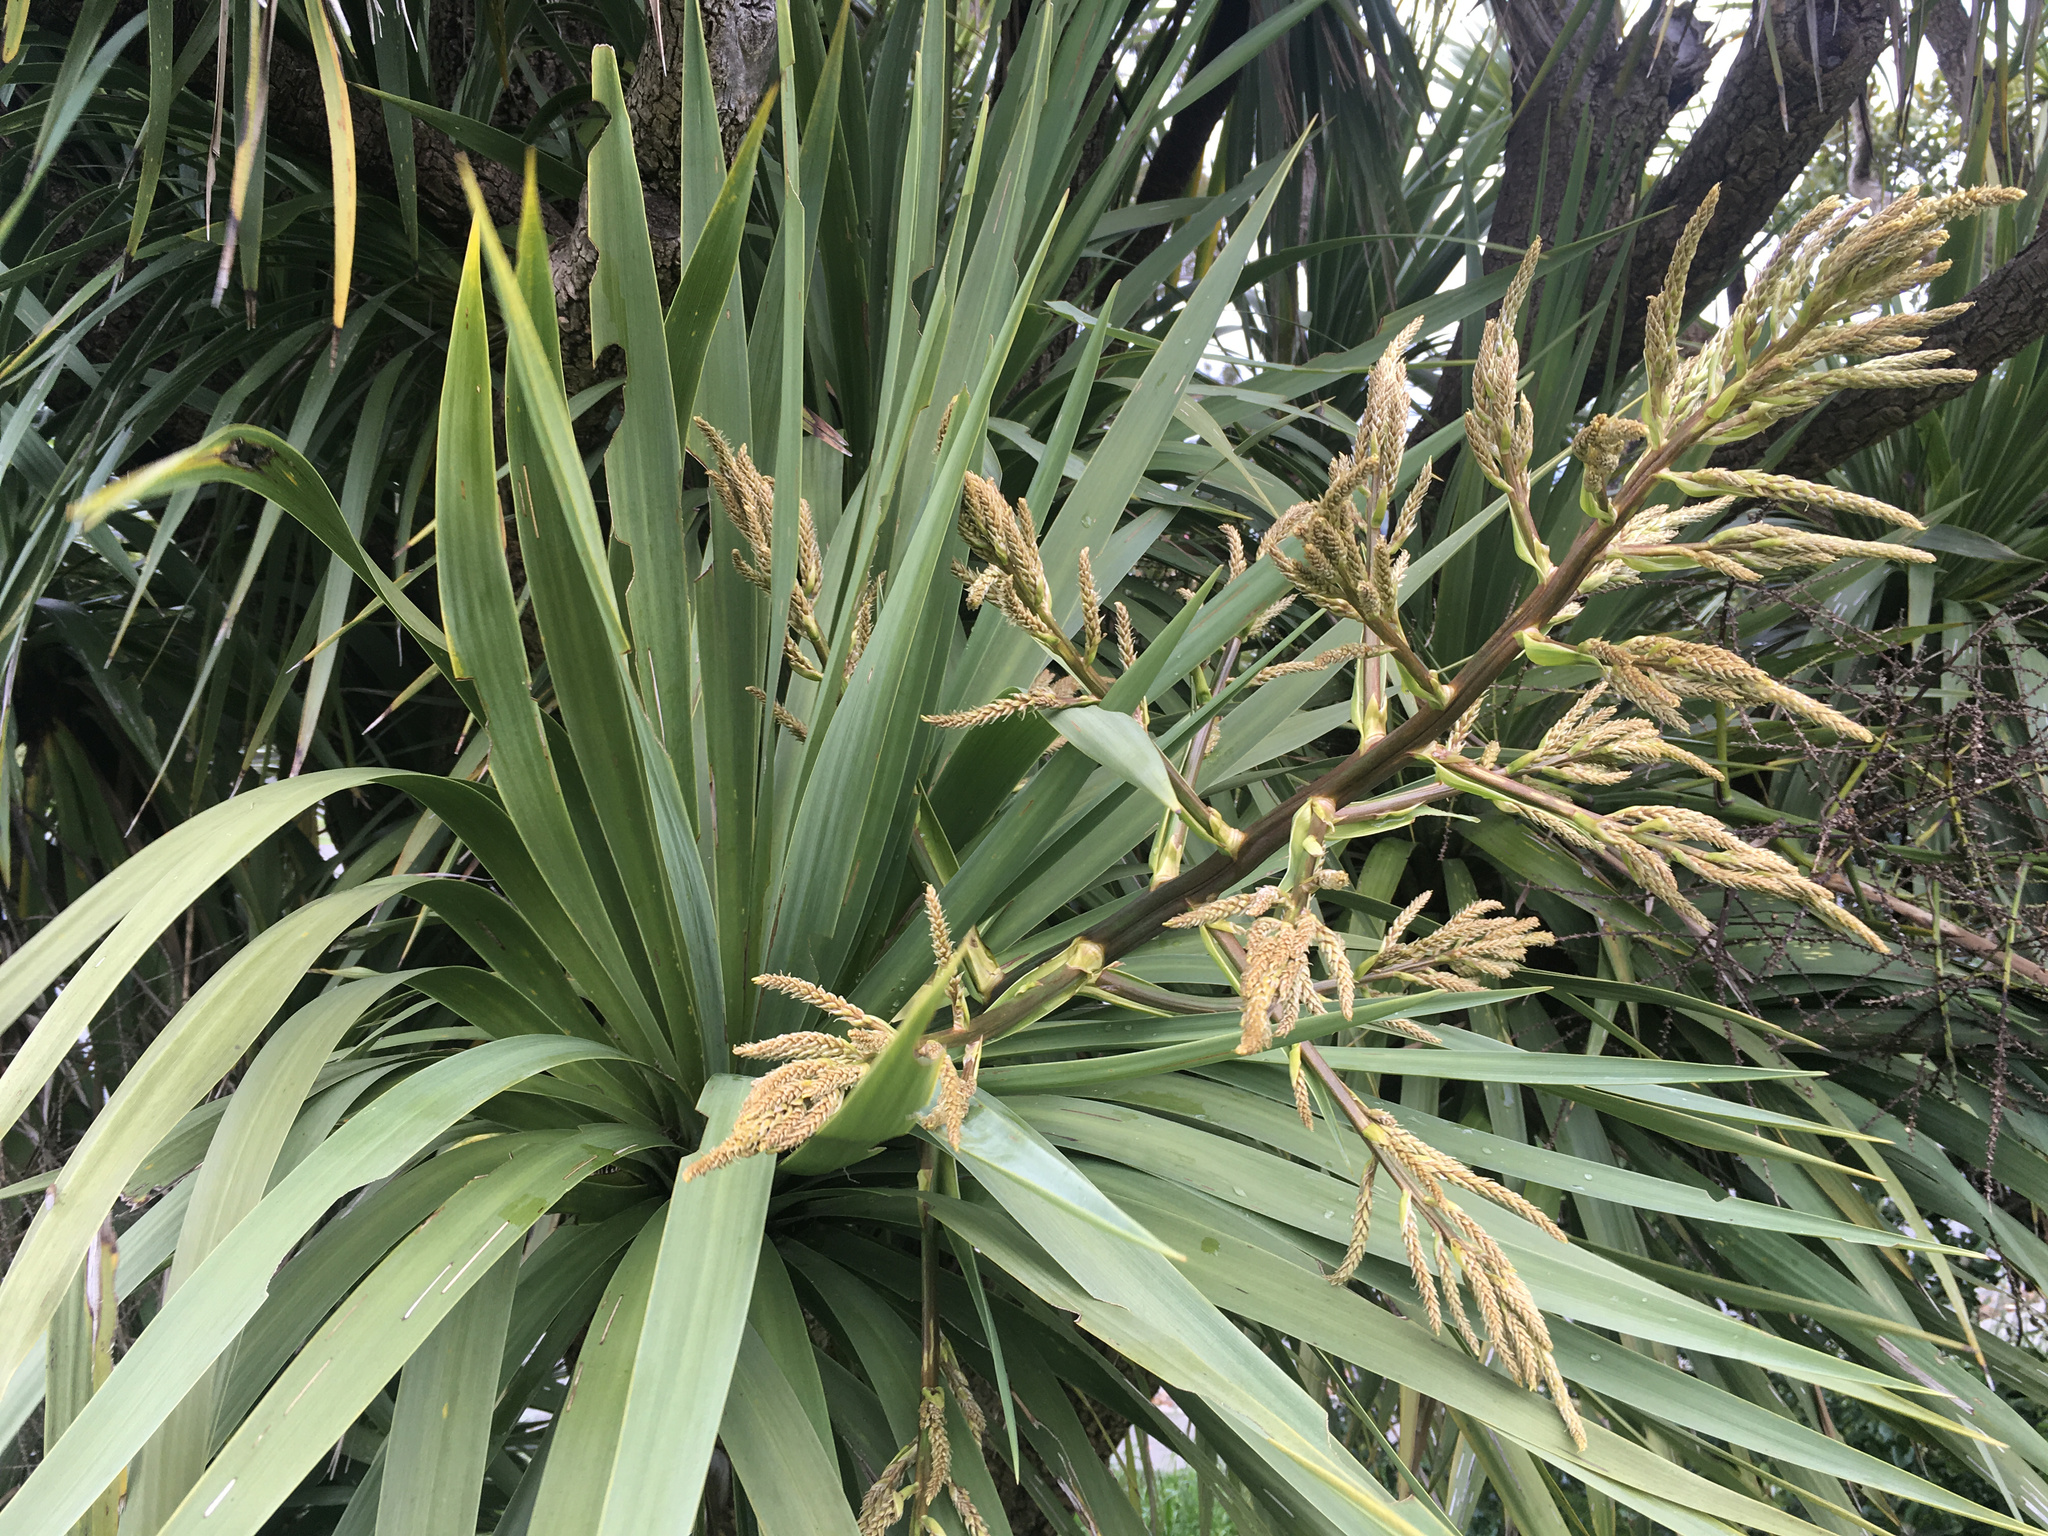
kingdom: Plantae
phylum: Tracheophyta
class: Liliopsida
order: Asparagales
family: Asparagaceae
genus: Cordyline
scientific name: Cordyline australis
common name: Cabbage-palm
